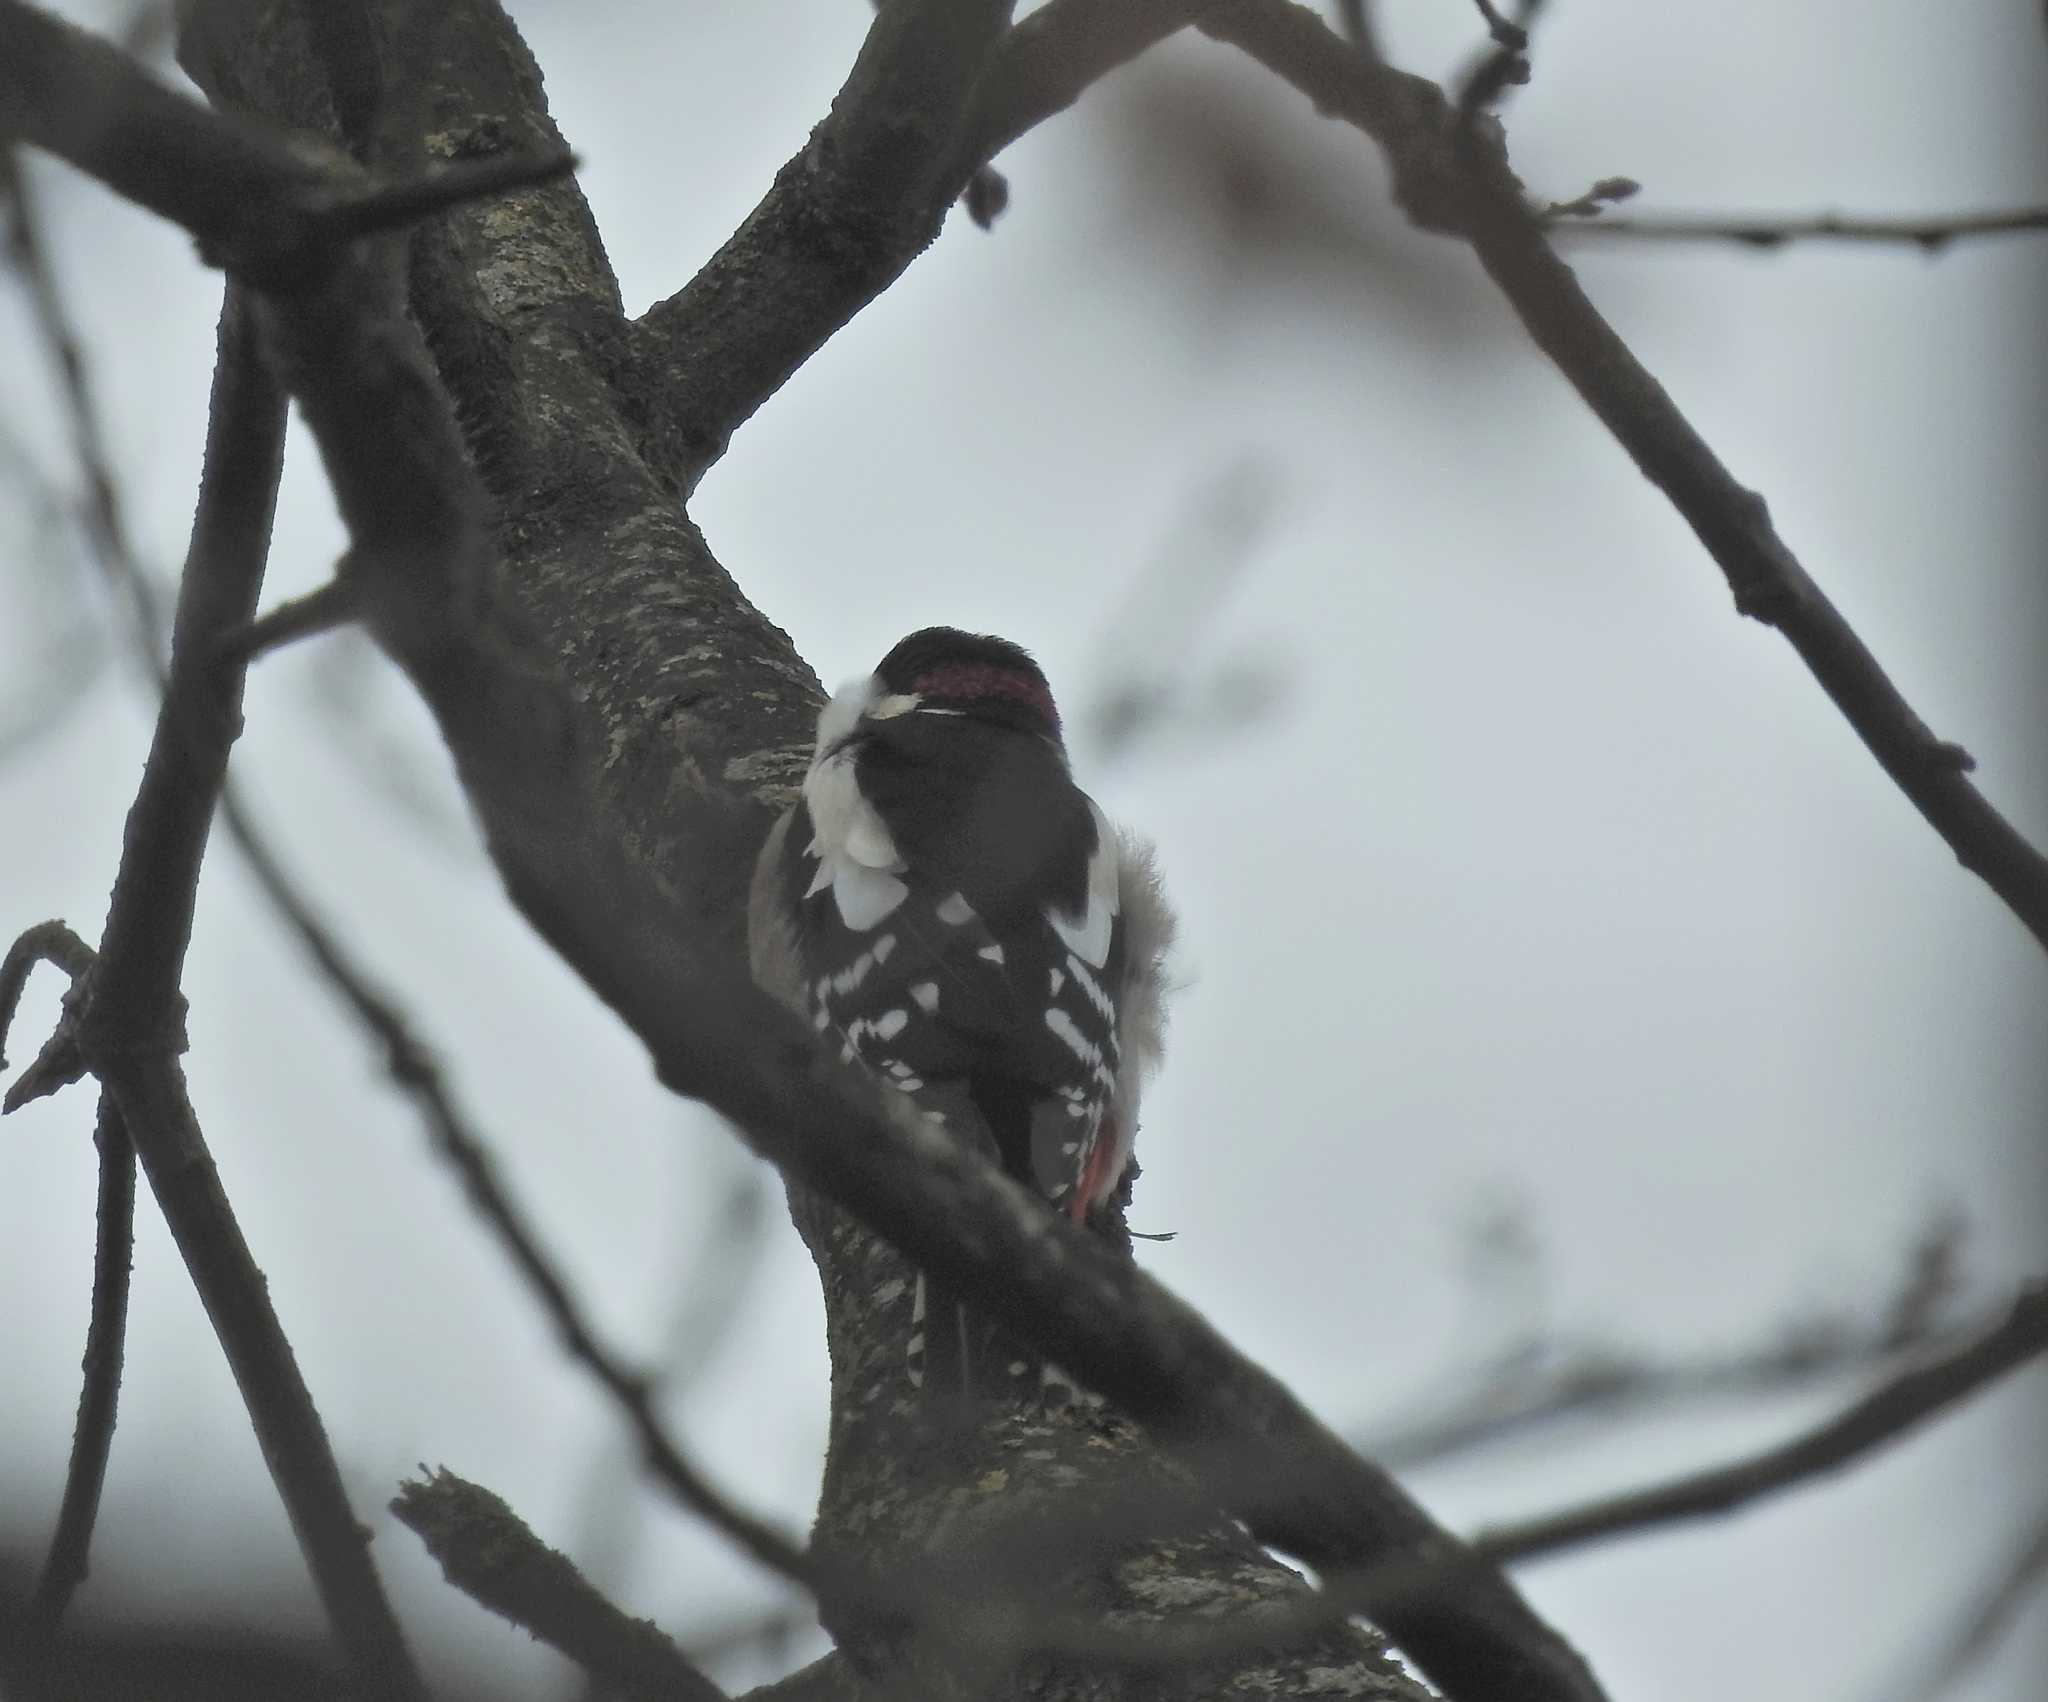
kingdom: Animalia
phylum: Chordata
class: Aves
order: Piciformes
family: Picidae
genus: Dendrocopos
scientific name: Dendrocopos major
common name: Great spotted woodpecker
